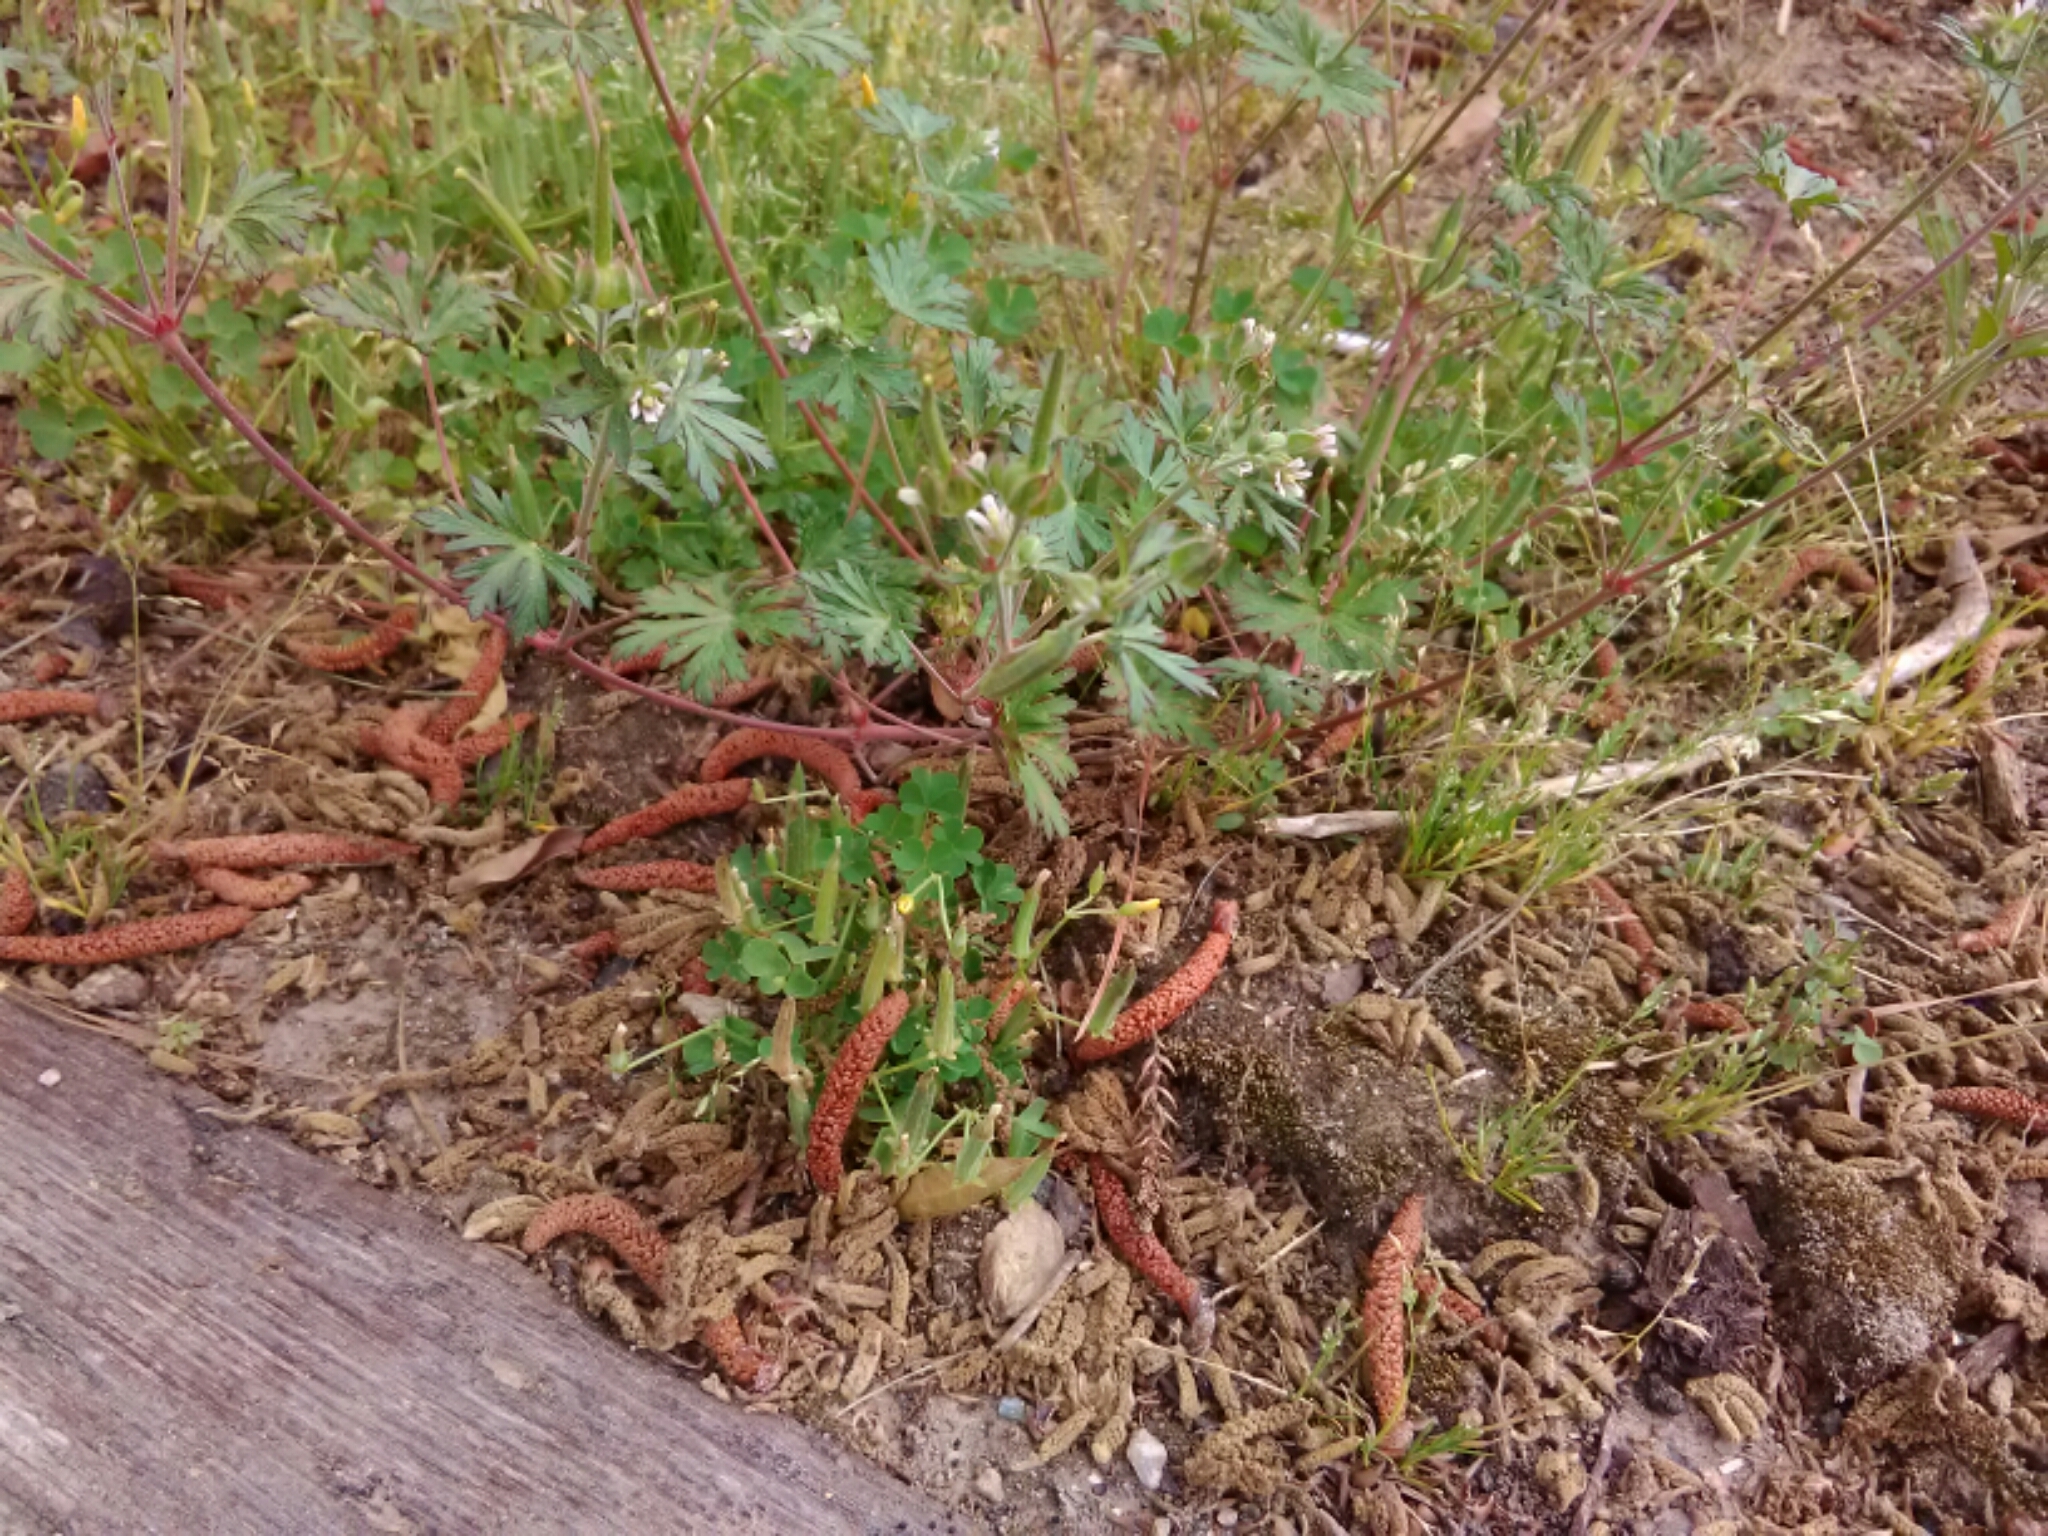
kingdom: Plantae
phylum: Tracheophyta
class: Magnoliopsida
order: Geraniales
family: Geraniaceae
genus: Geranium
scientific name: Geranium carolinianum
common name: Carolina crane's-bill
